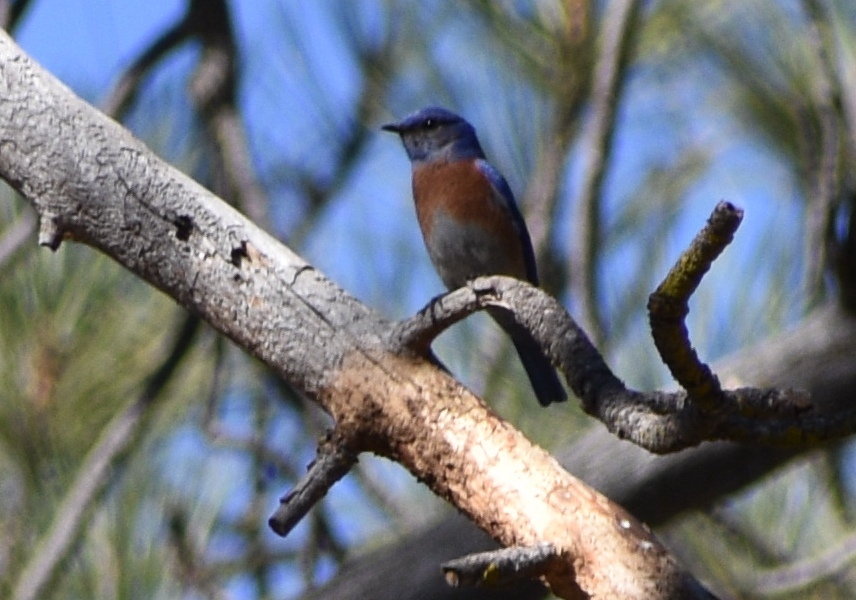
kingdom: Animalia
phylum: Chordata
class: Aves
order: Passeriformes
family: Turdidae
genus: Sialia
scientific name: Sialia mexicana
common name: Western bluebird
